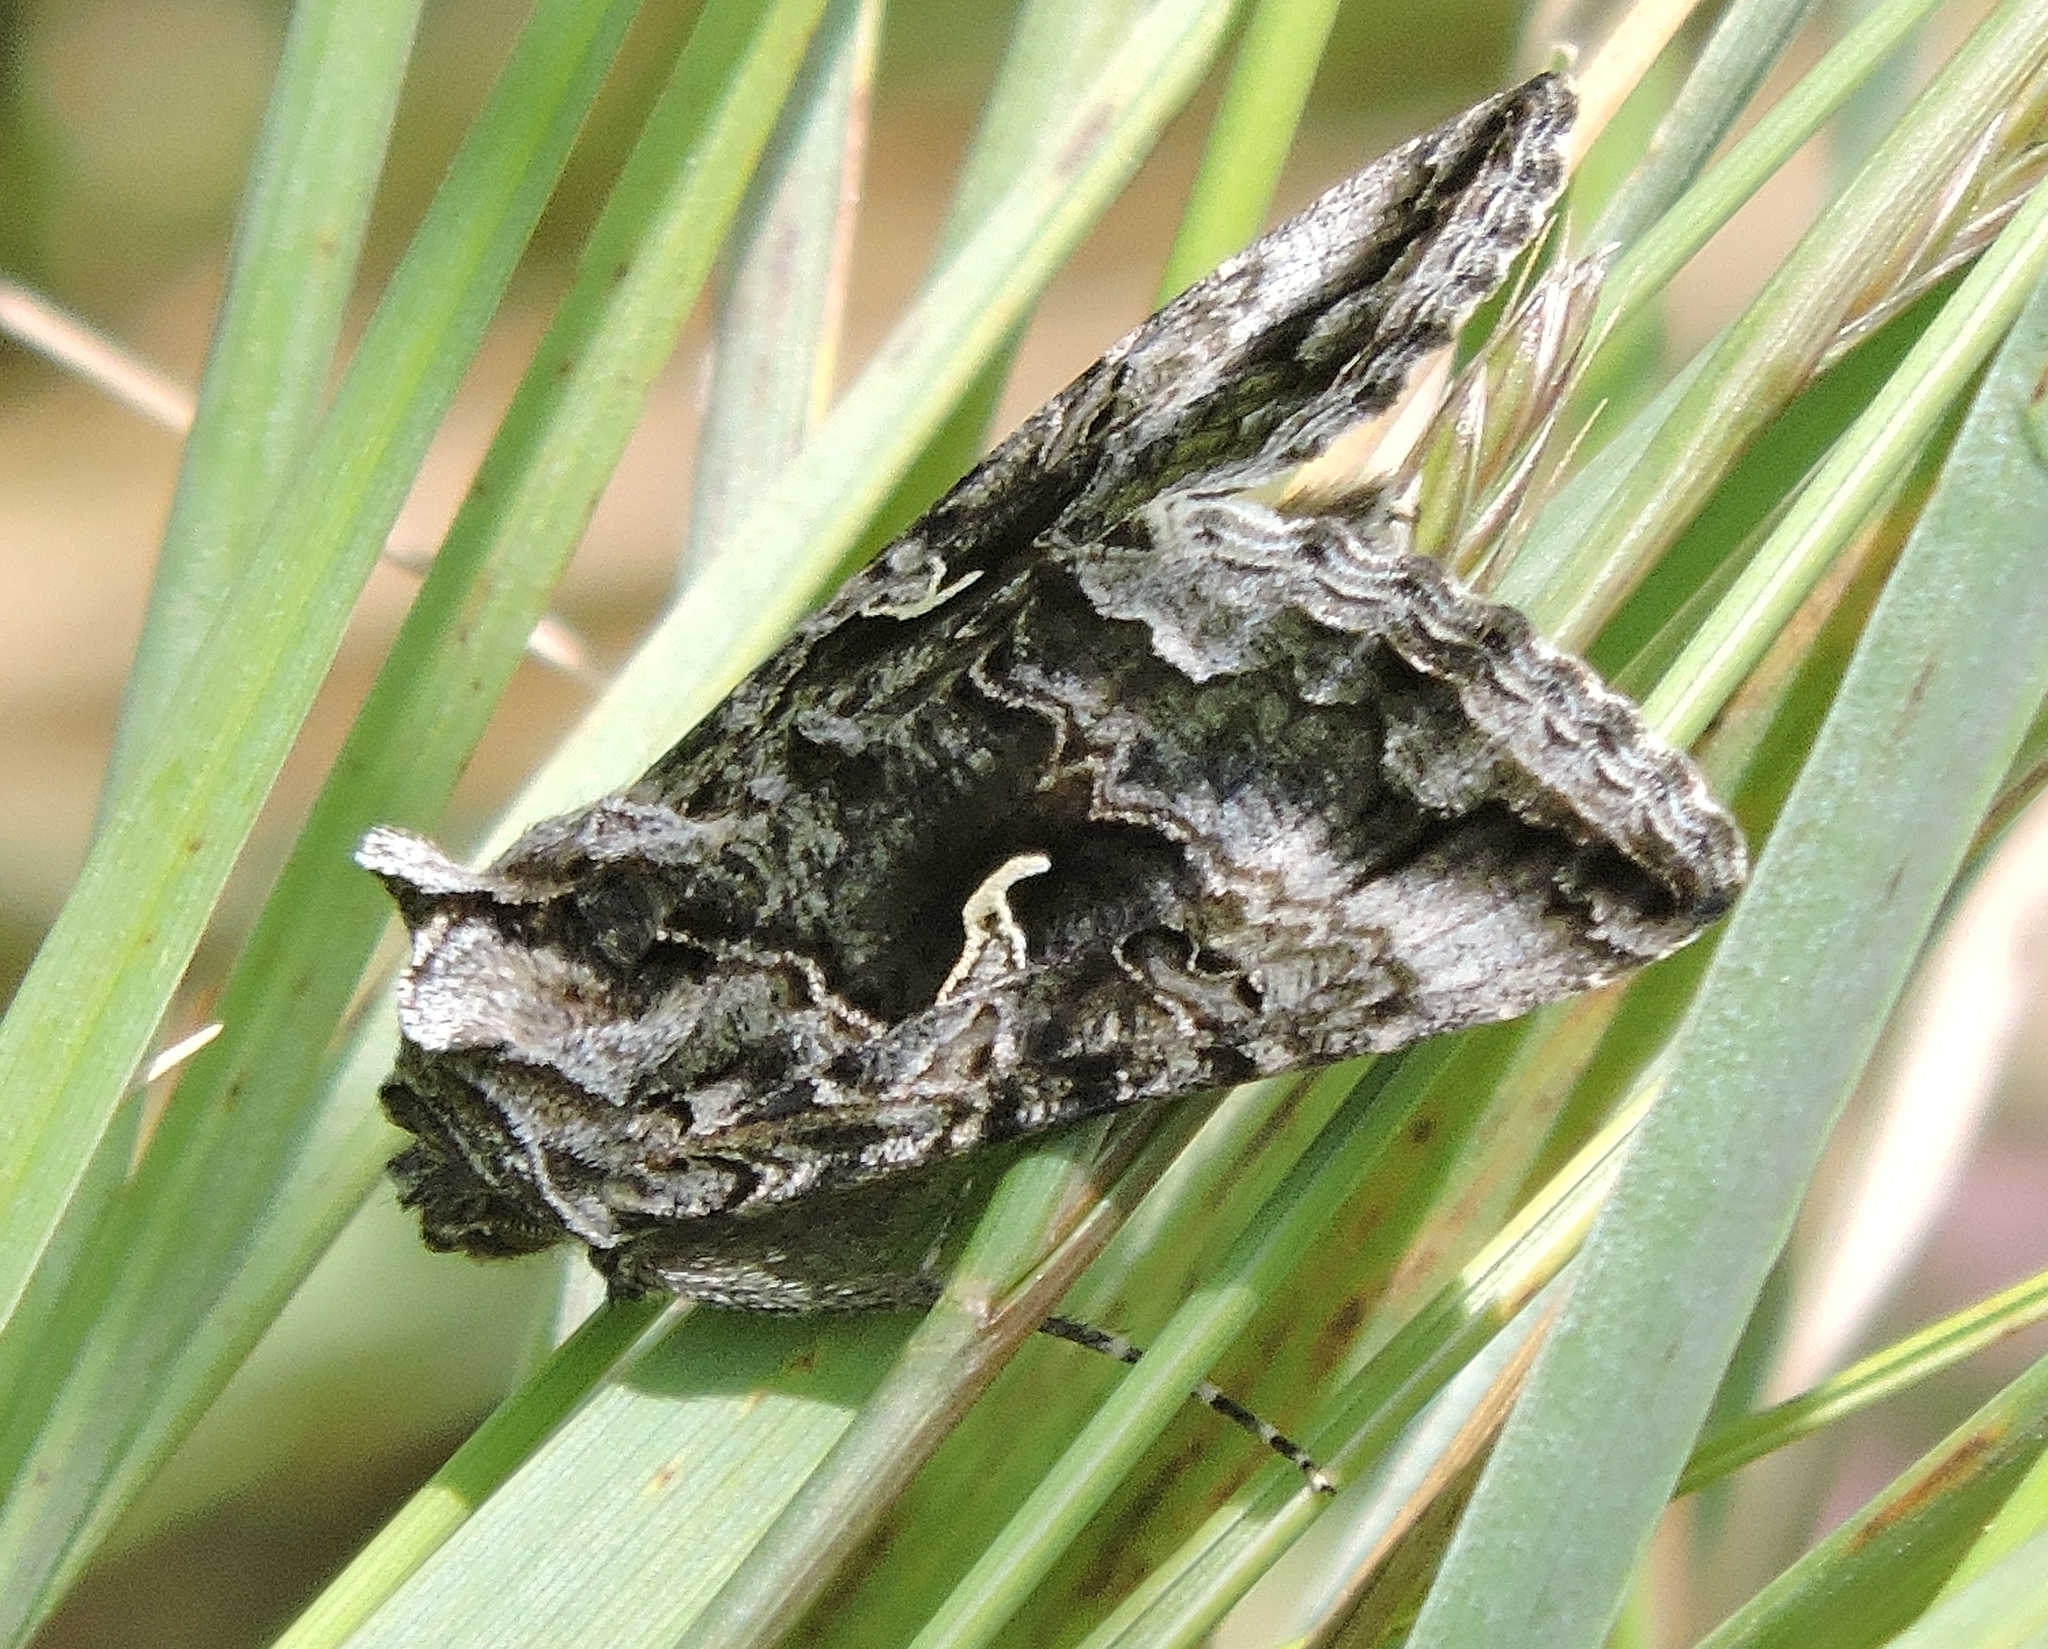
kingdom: Animalia
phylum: Arthropoda
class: Insecta
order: Lepidoptera
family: Noctuidae
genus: Autographa
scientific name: Autographa californica
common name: Alfalfa looper
